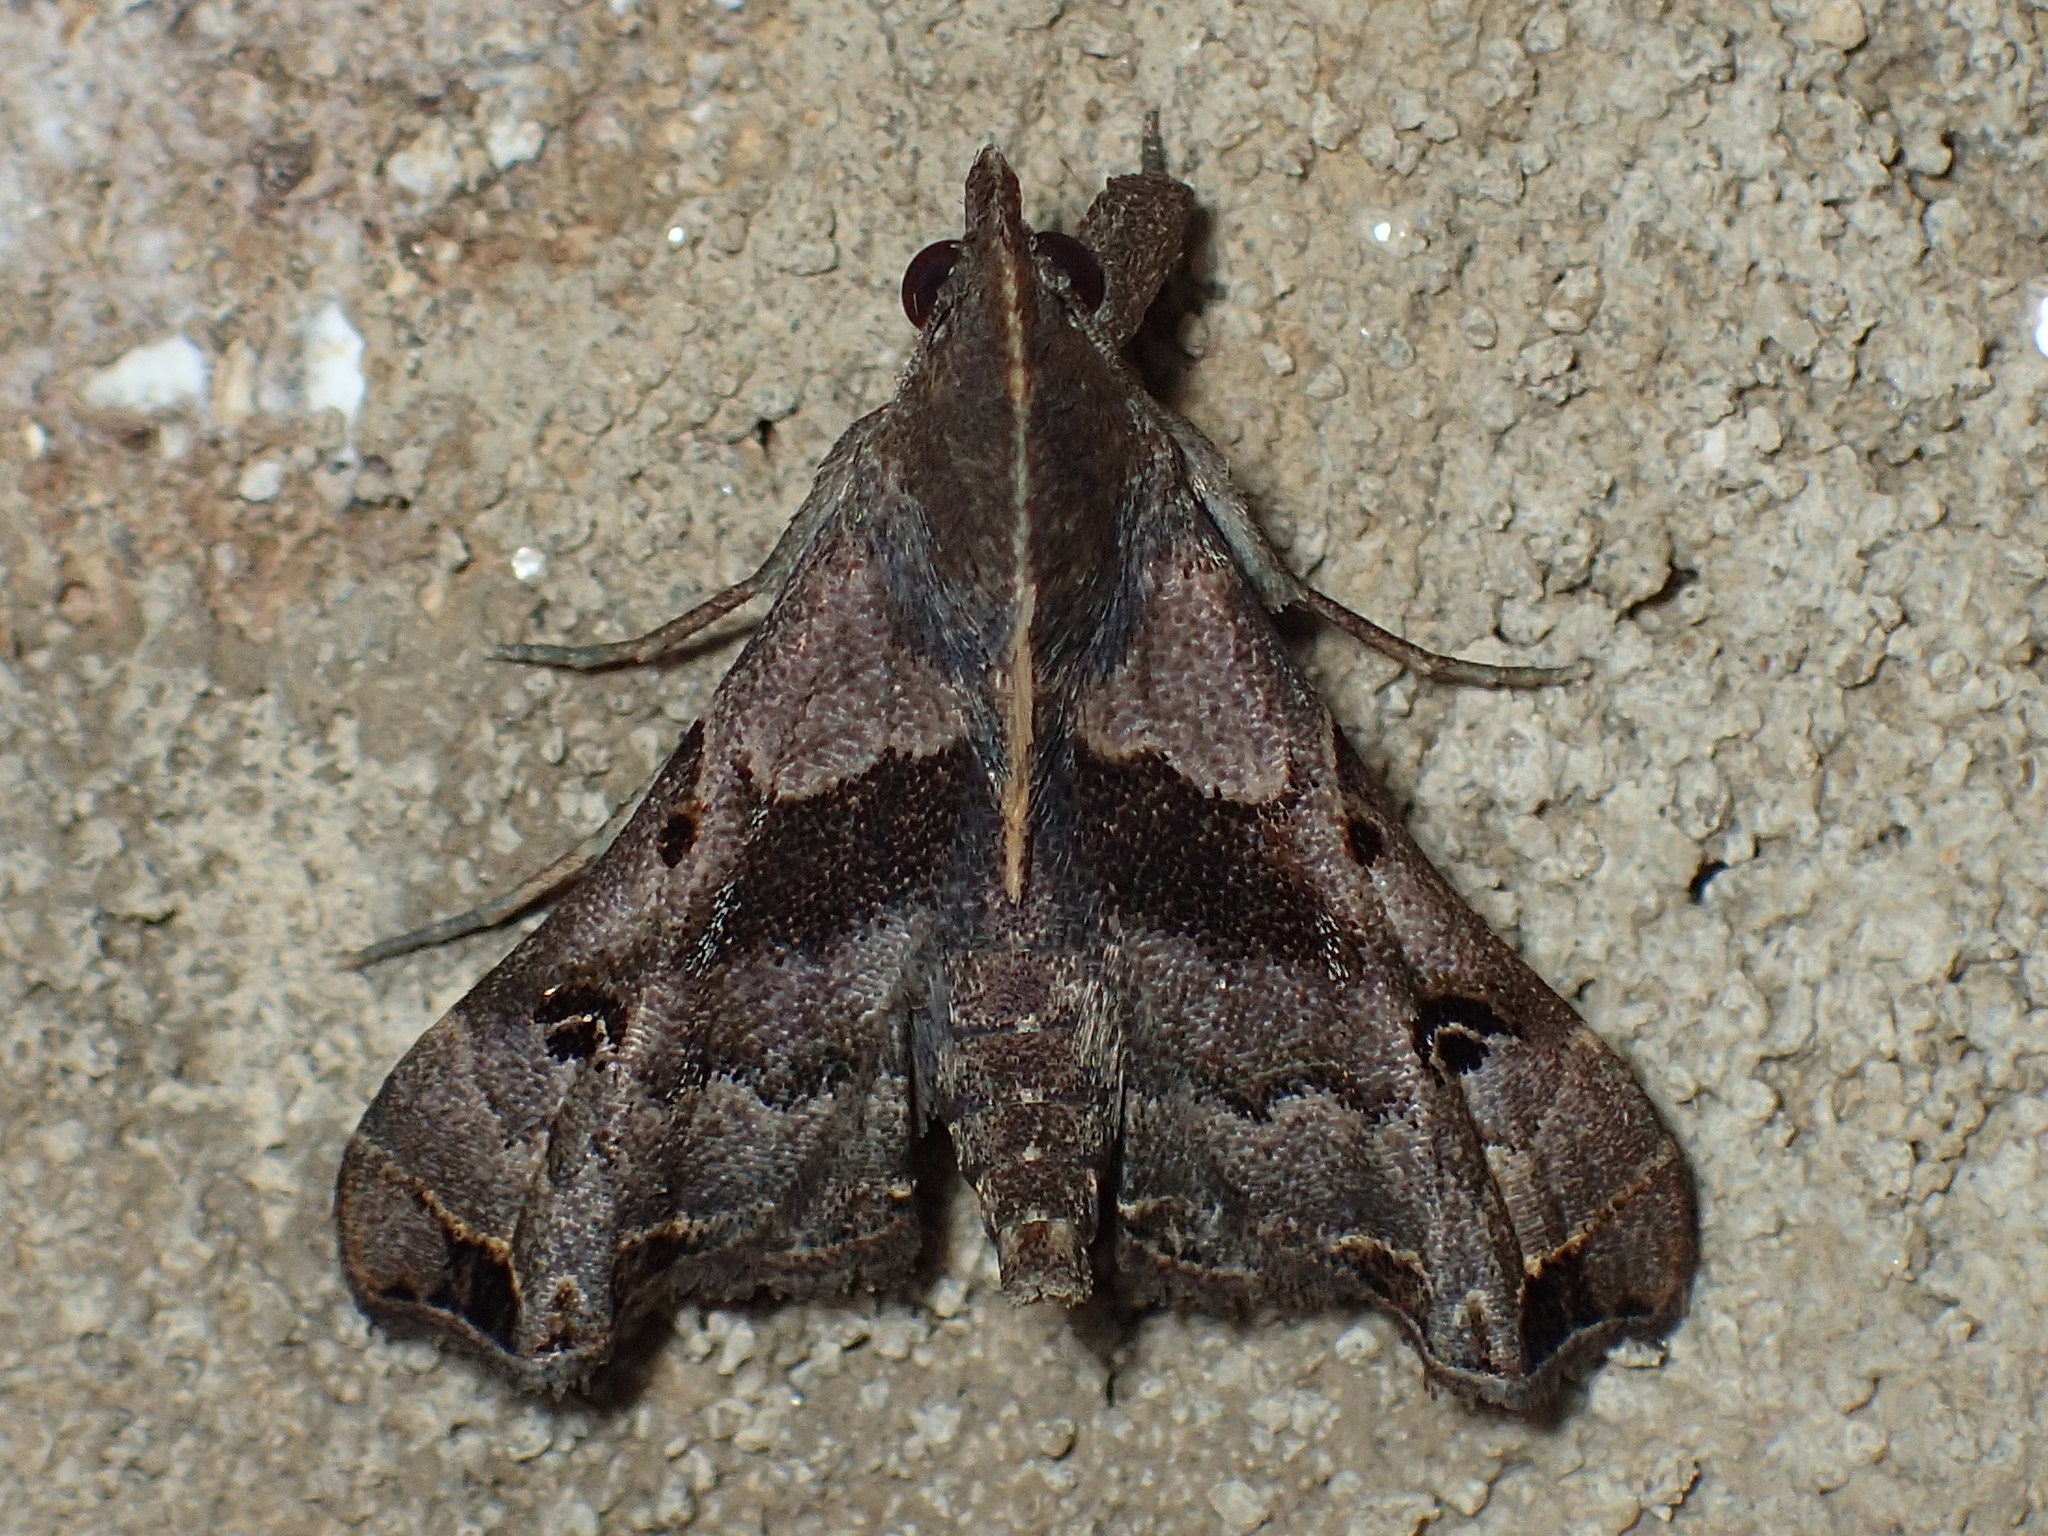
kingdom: Animalia
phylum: Arthropoda
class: Insecta
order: Lepidoptera
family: Erebidae
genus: Palthis
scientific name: Palthis asopialis
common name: Faint-spotted palthis moth
